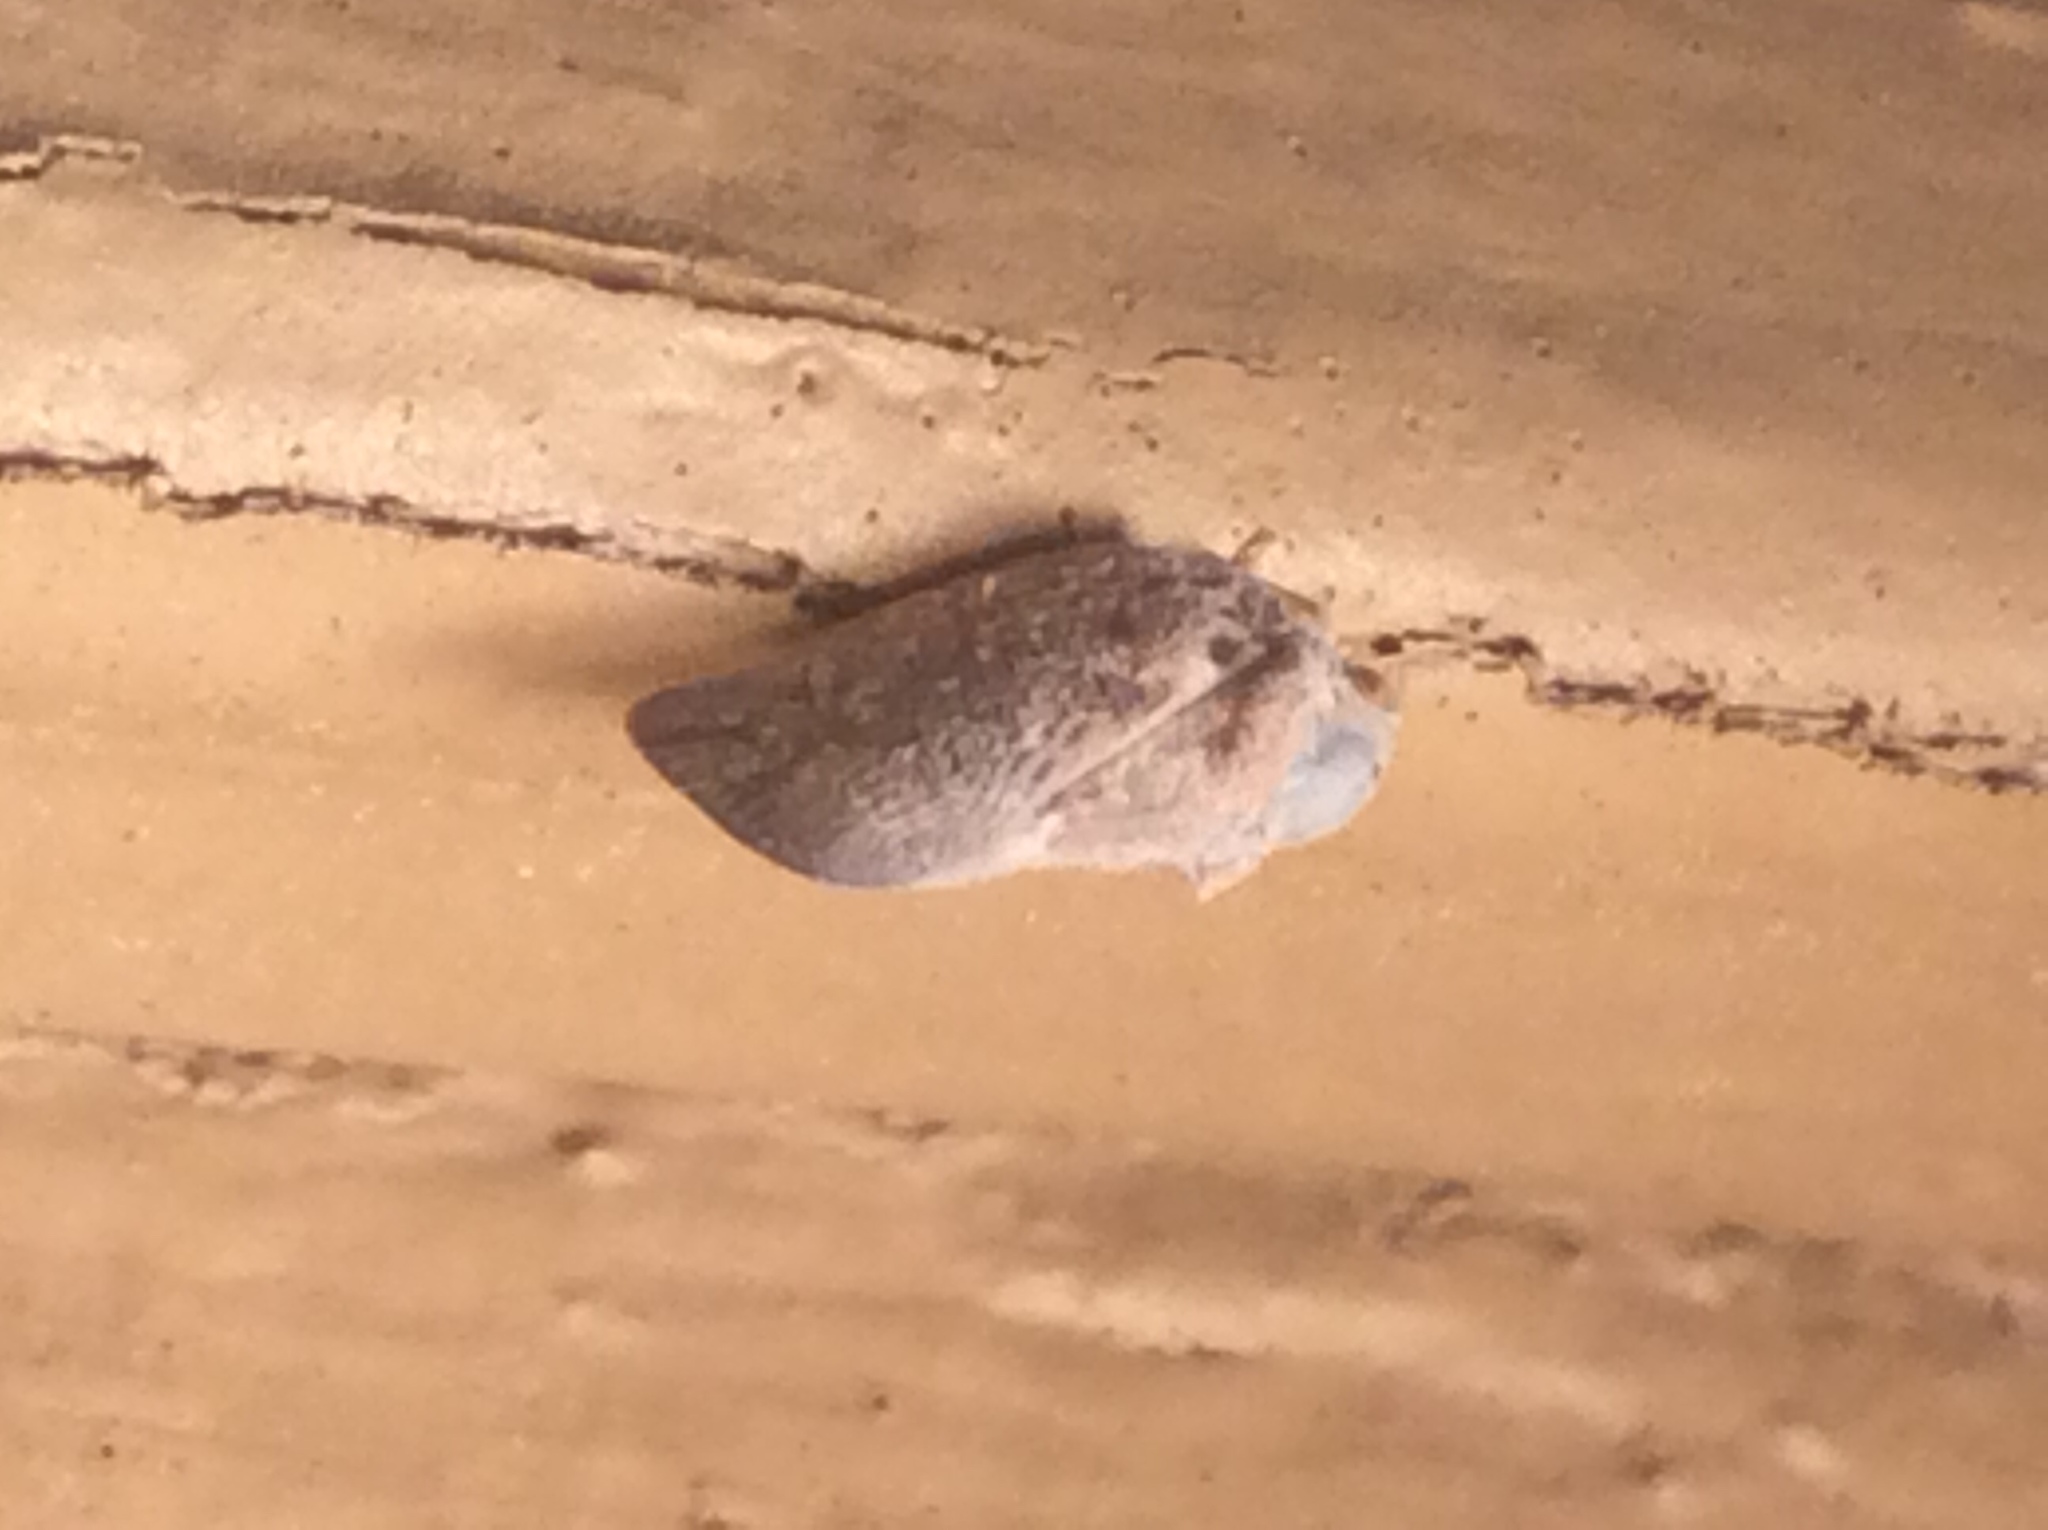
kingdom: Animalia
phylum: Arthropoda
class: Insecta
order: Hemiptera
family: Flatidae
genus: Metcalfa
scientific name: Metcalfa pruinosa
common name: Citrus flatid planthopper
